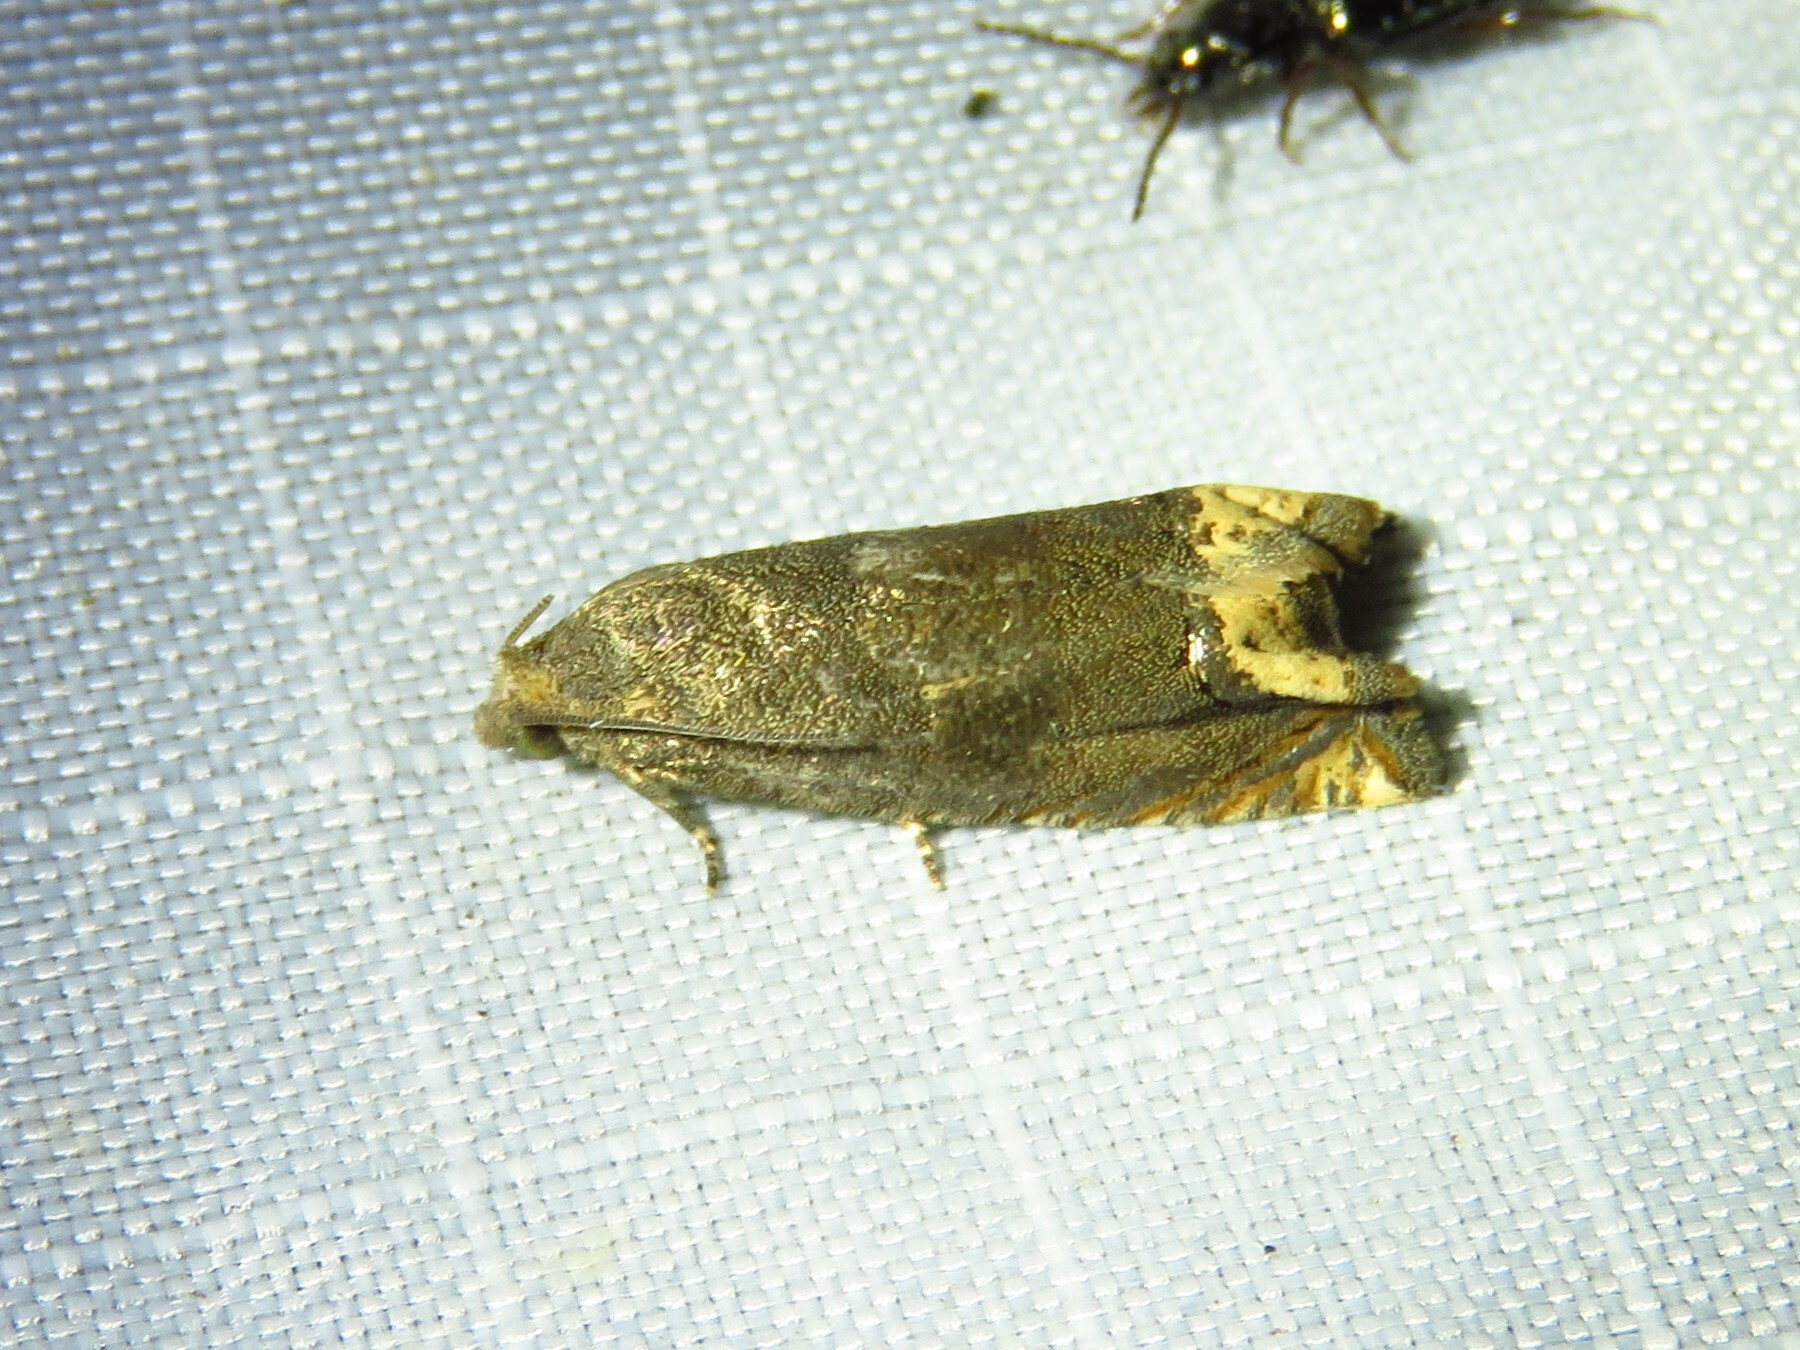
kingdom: Animalia
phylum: Arthropoda
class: Insecta
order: Lepidoptera
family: Tortricidae
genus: Epiblema
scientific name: Epiblema strenuana
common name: Ragweed borer moth
